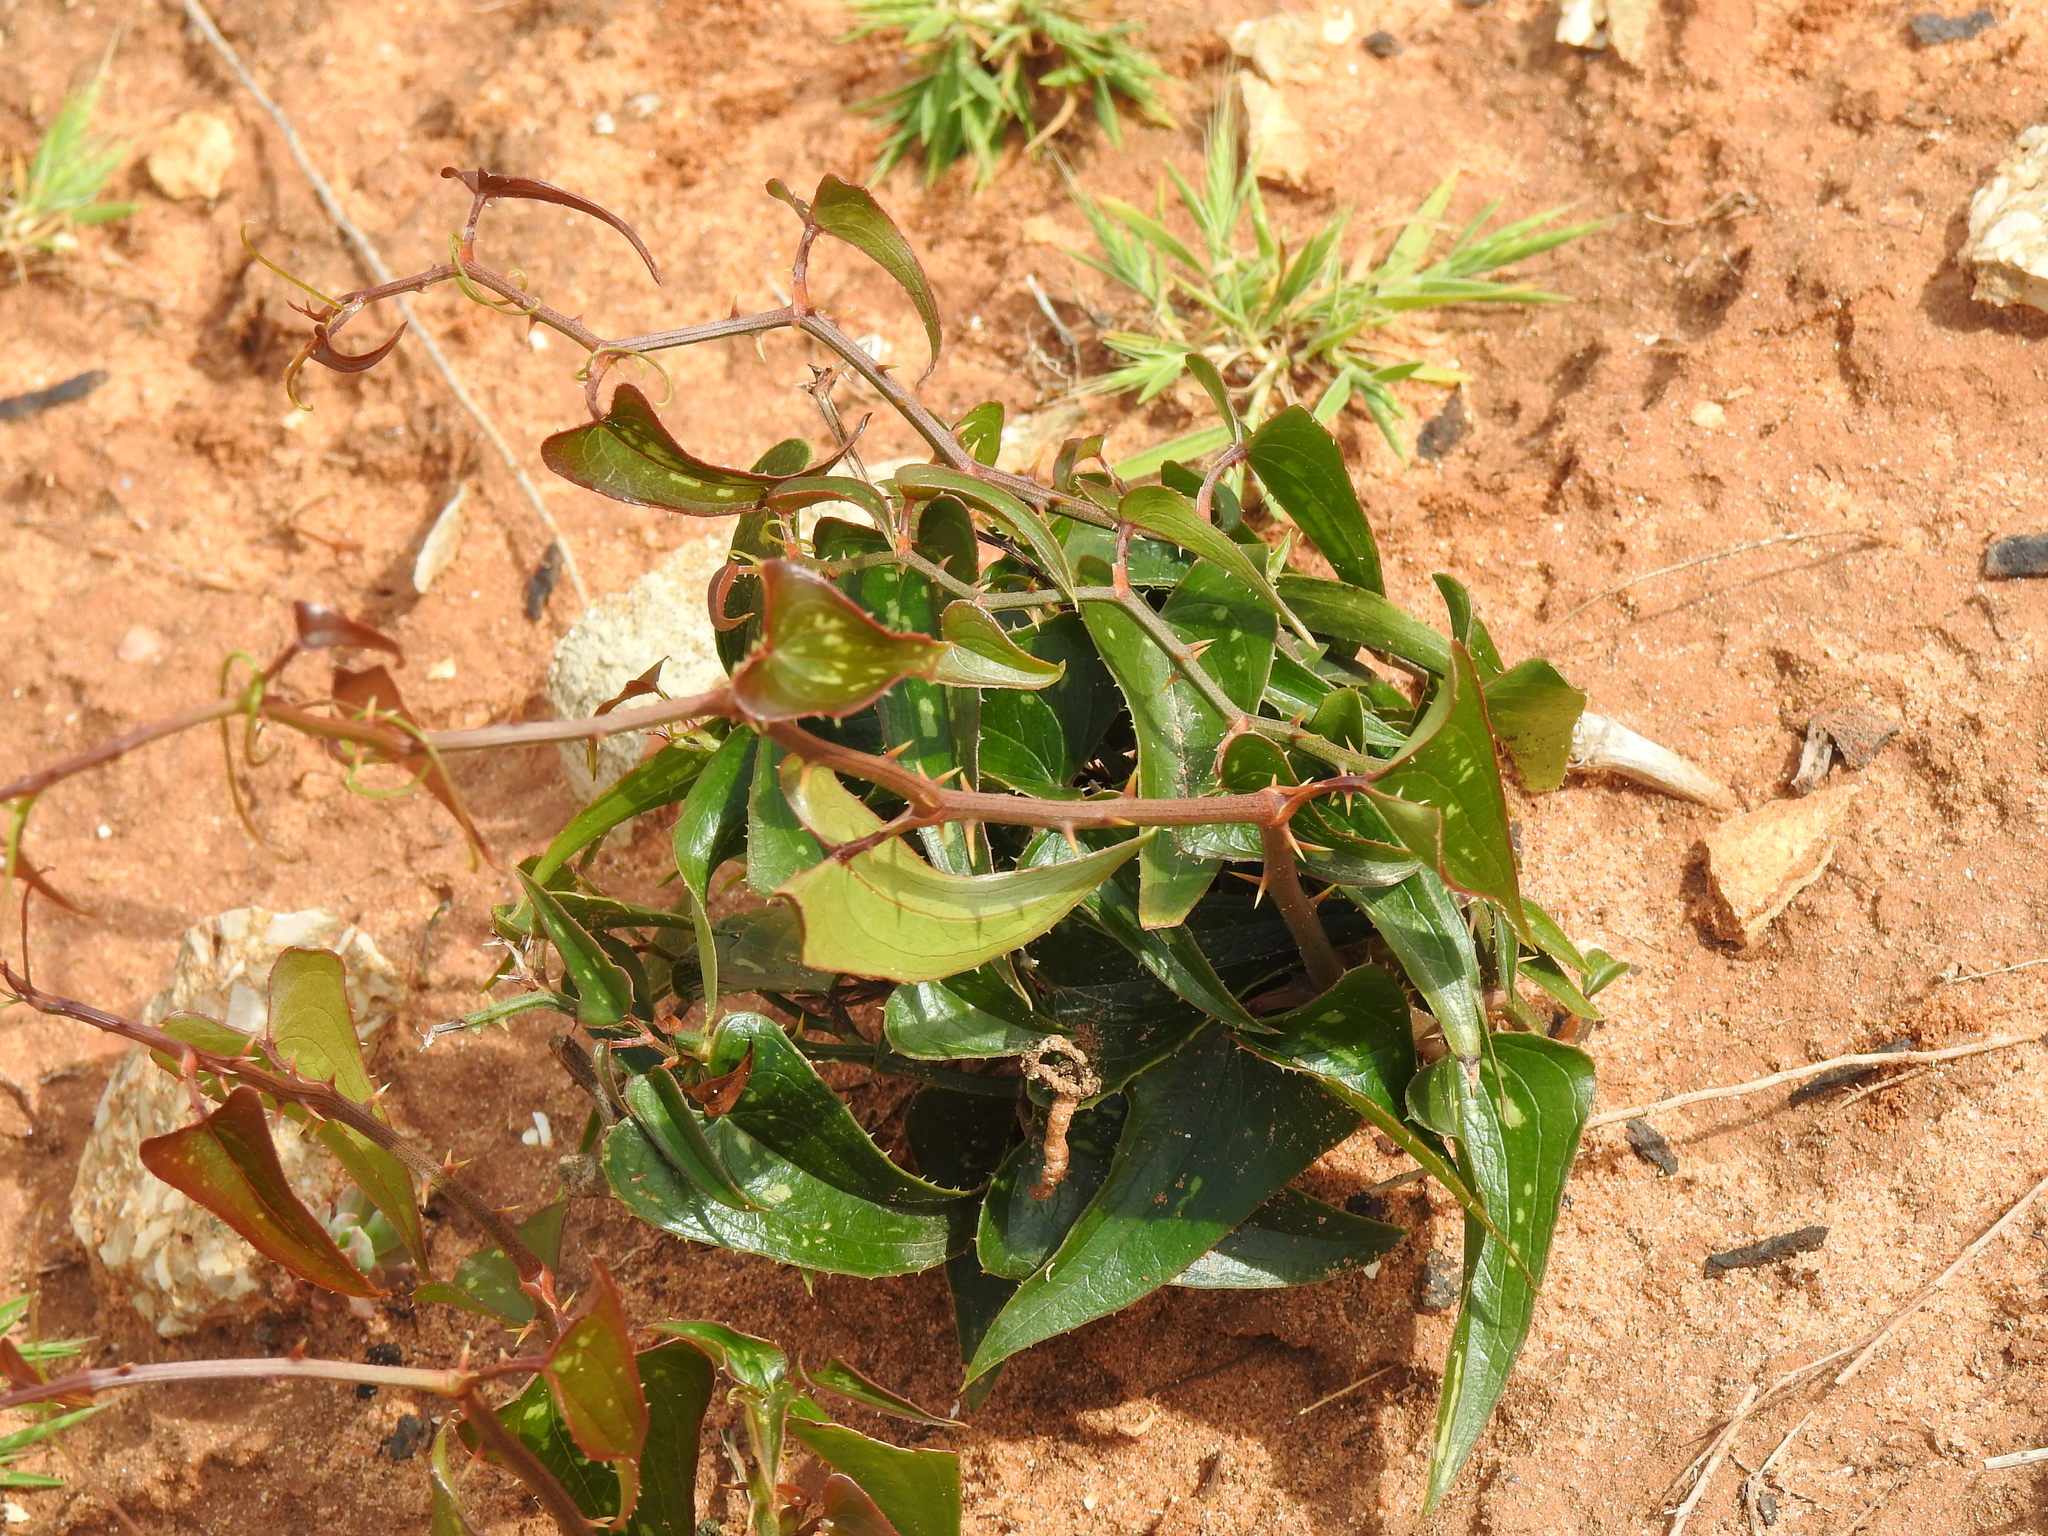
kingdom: Plantae
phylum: Tracheophyta
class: Liliopsida
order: Liliales
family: Smilacaceae
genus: Smilax
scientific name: Smilax aspera
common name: Common smilax
